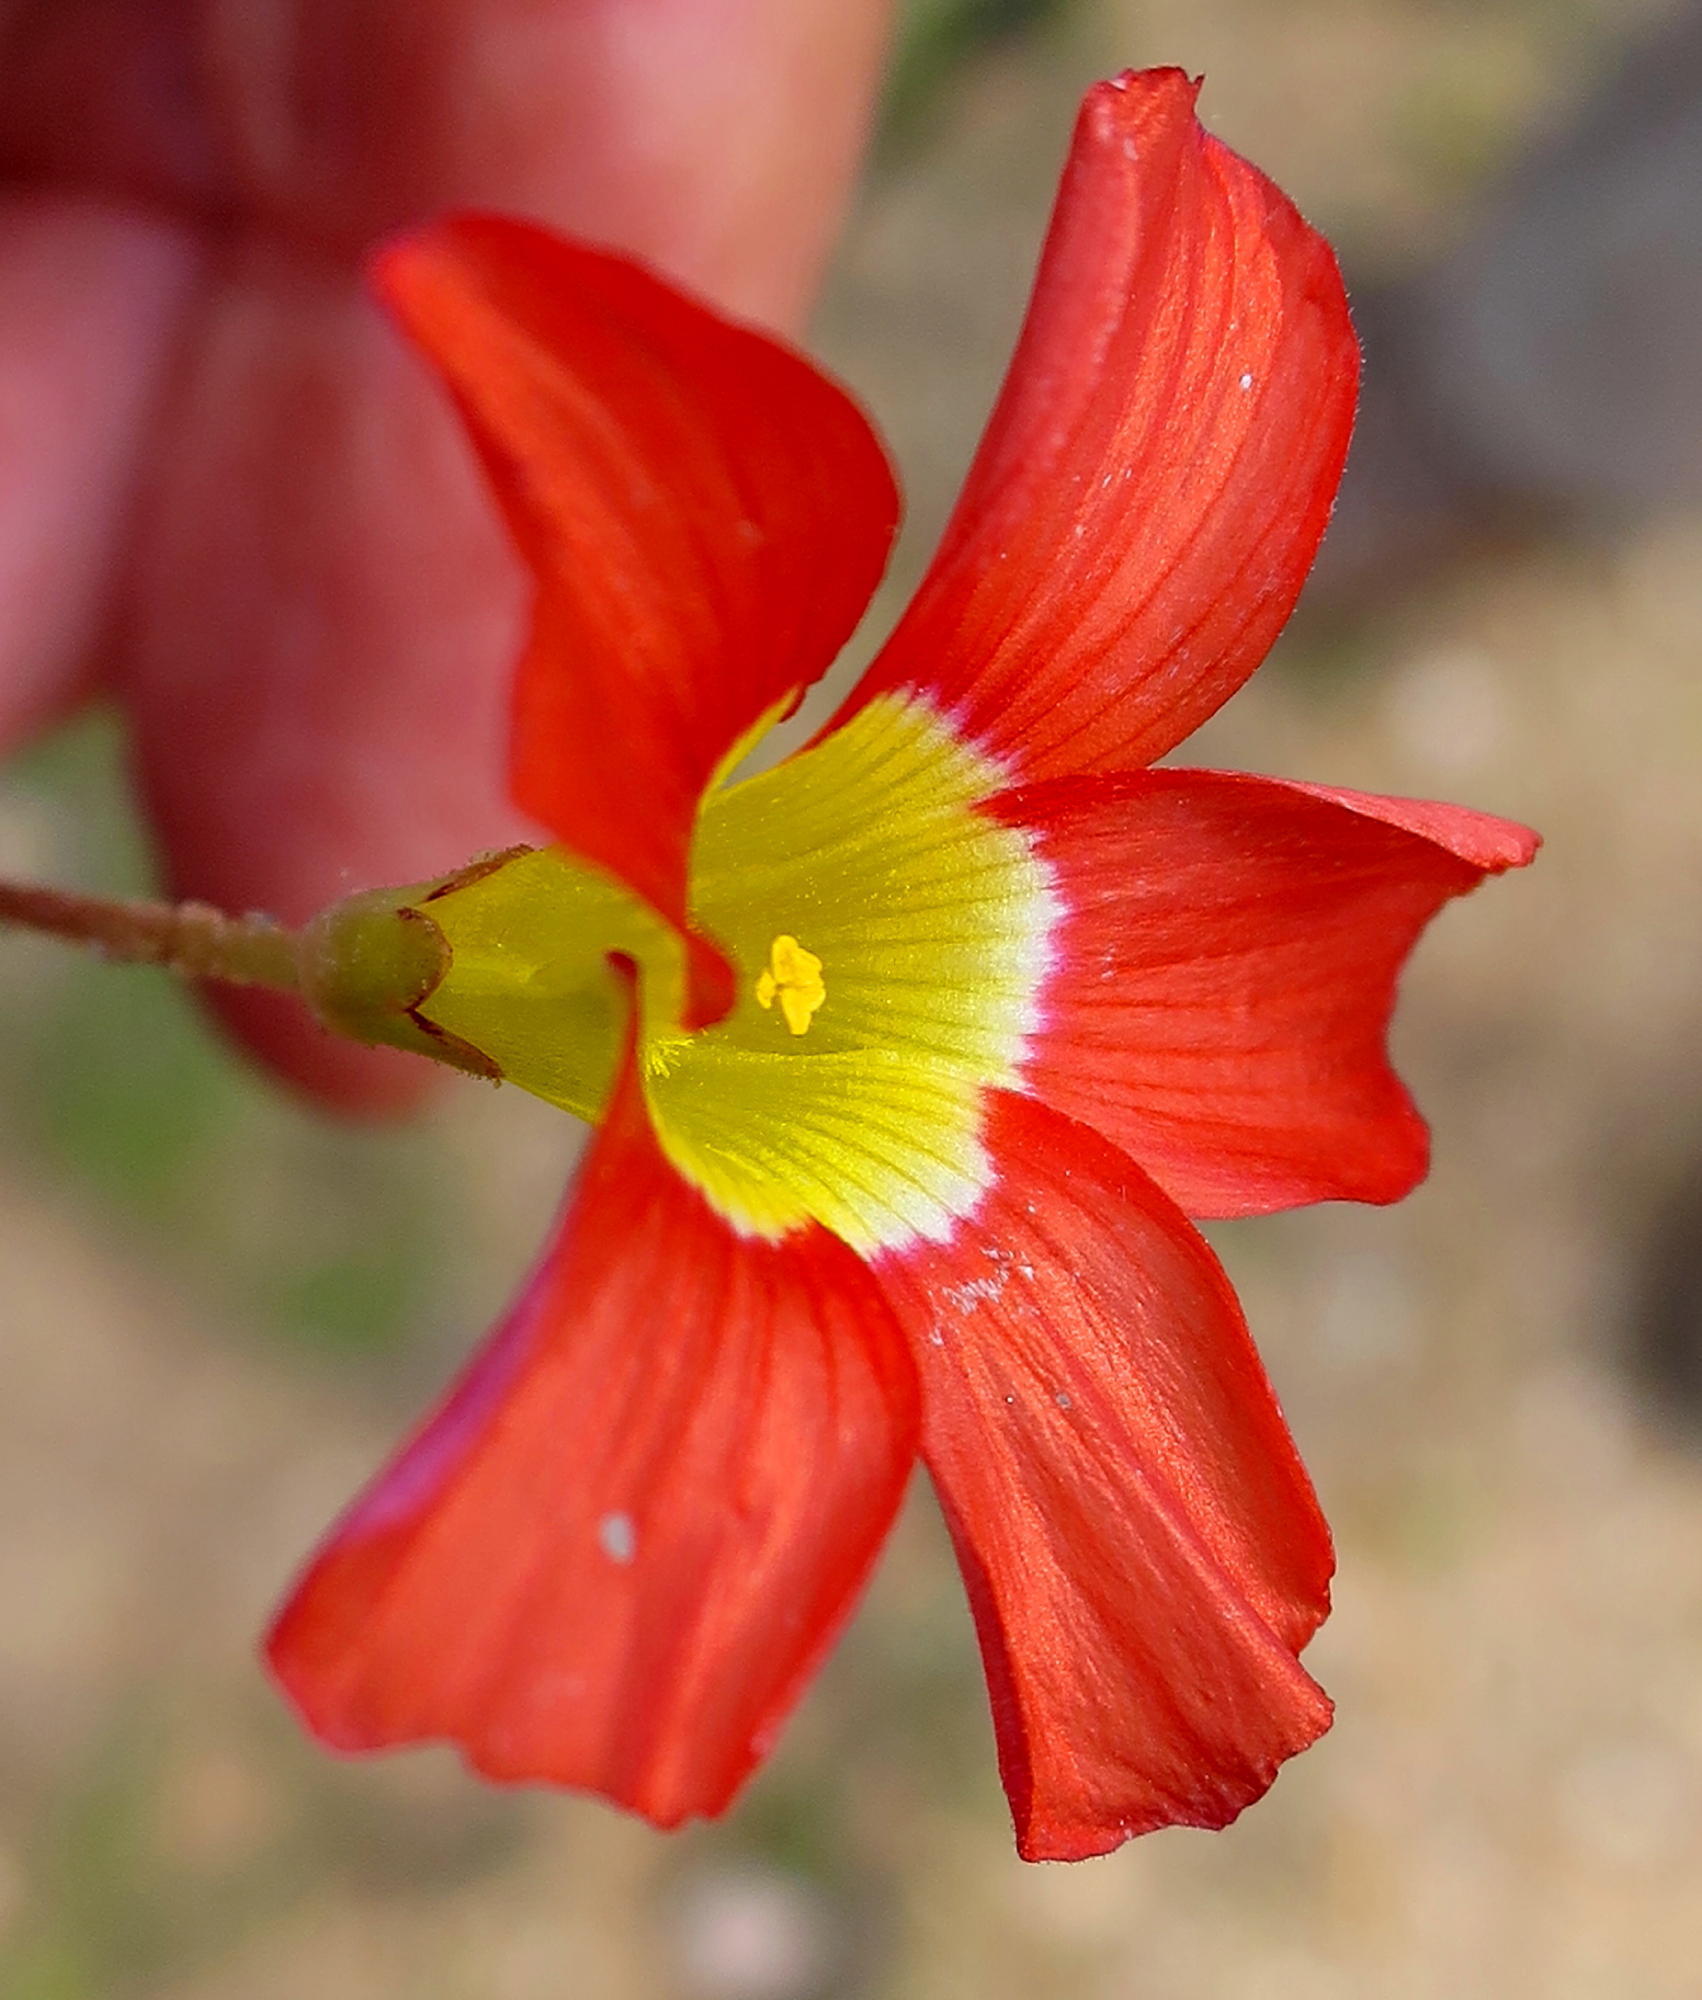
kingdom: Plantae
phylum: Tracheophyta
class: Magnoliopsida
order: Oxalidales
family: Oxalidaceae
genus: Oxalis
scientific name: Oxalis fergusoniae
